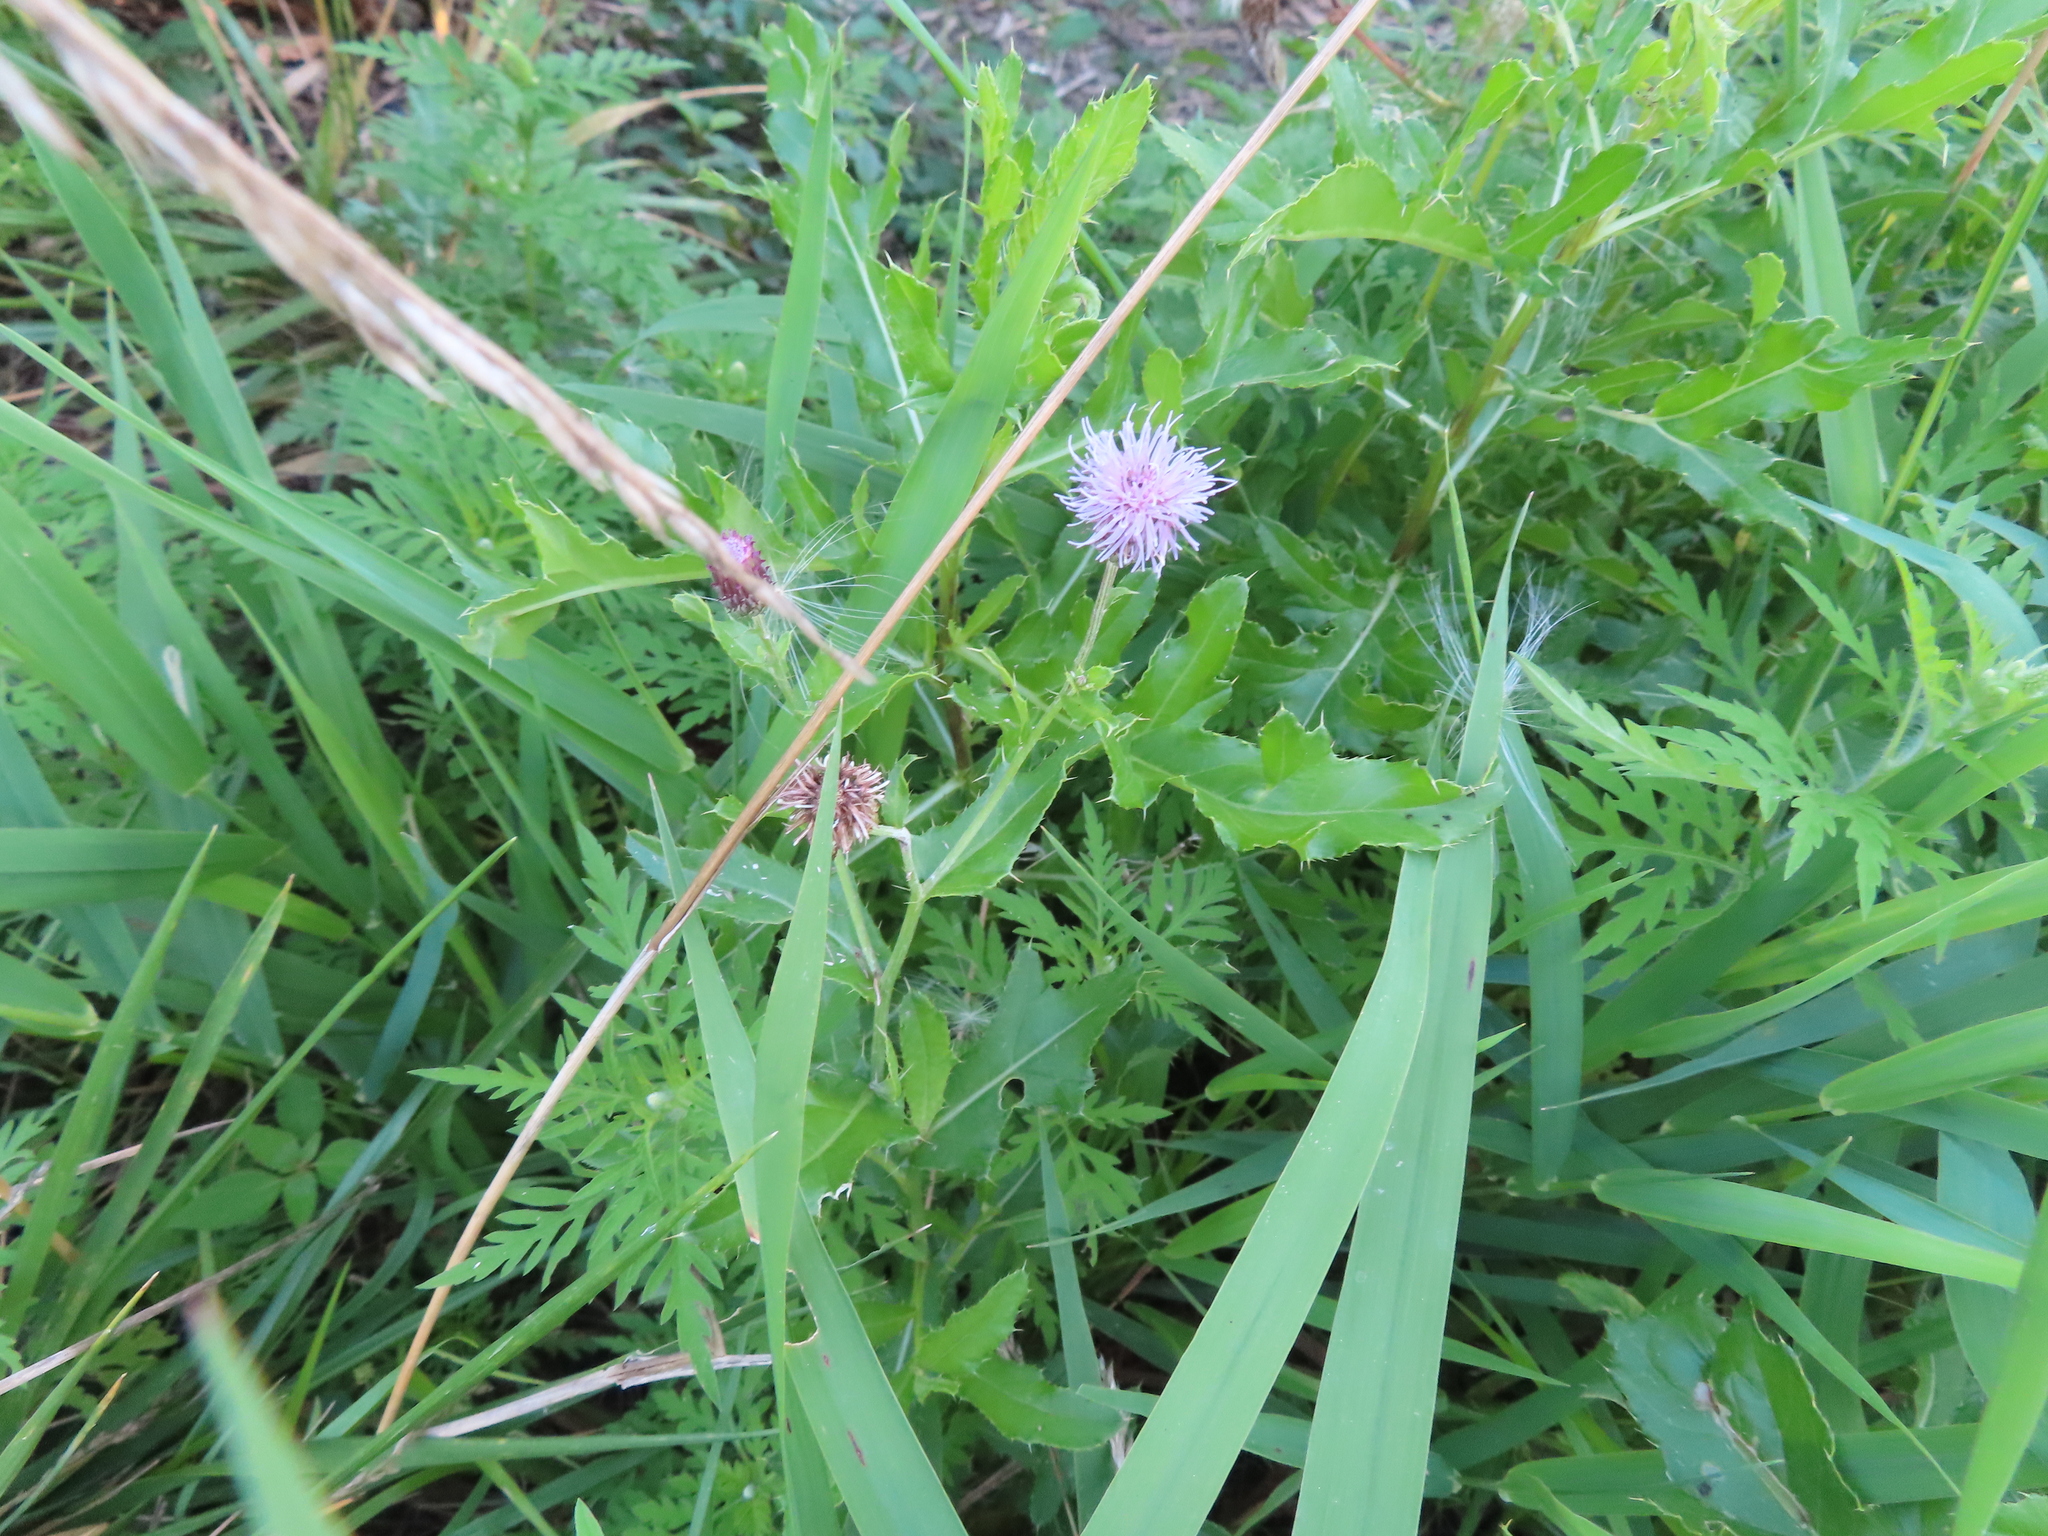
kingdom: Plantae
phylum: Tracheophyta
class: Magnoliopsida
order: Asterales
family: Asteraceae
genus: Cirsium
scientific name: Cirsium arvense
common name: Creeping thistle
